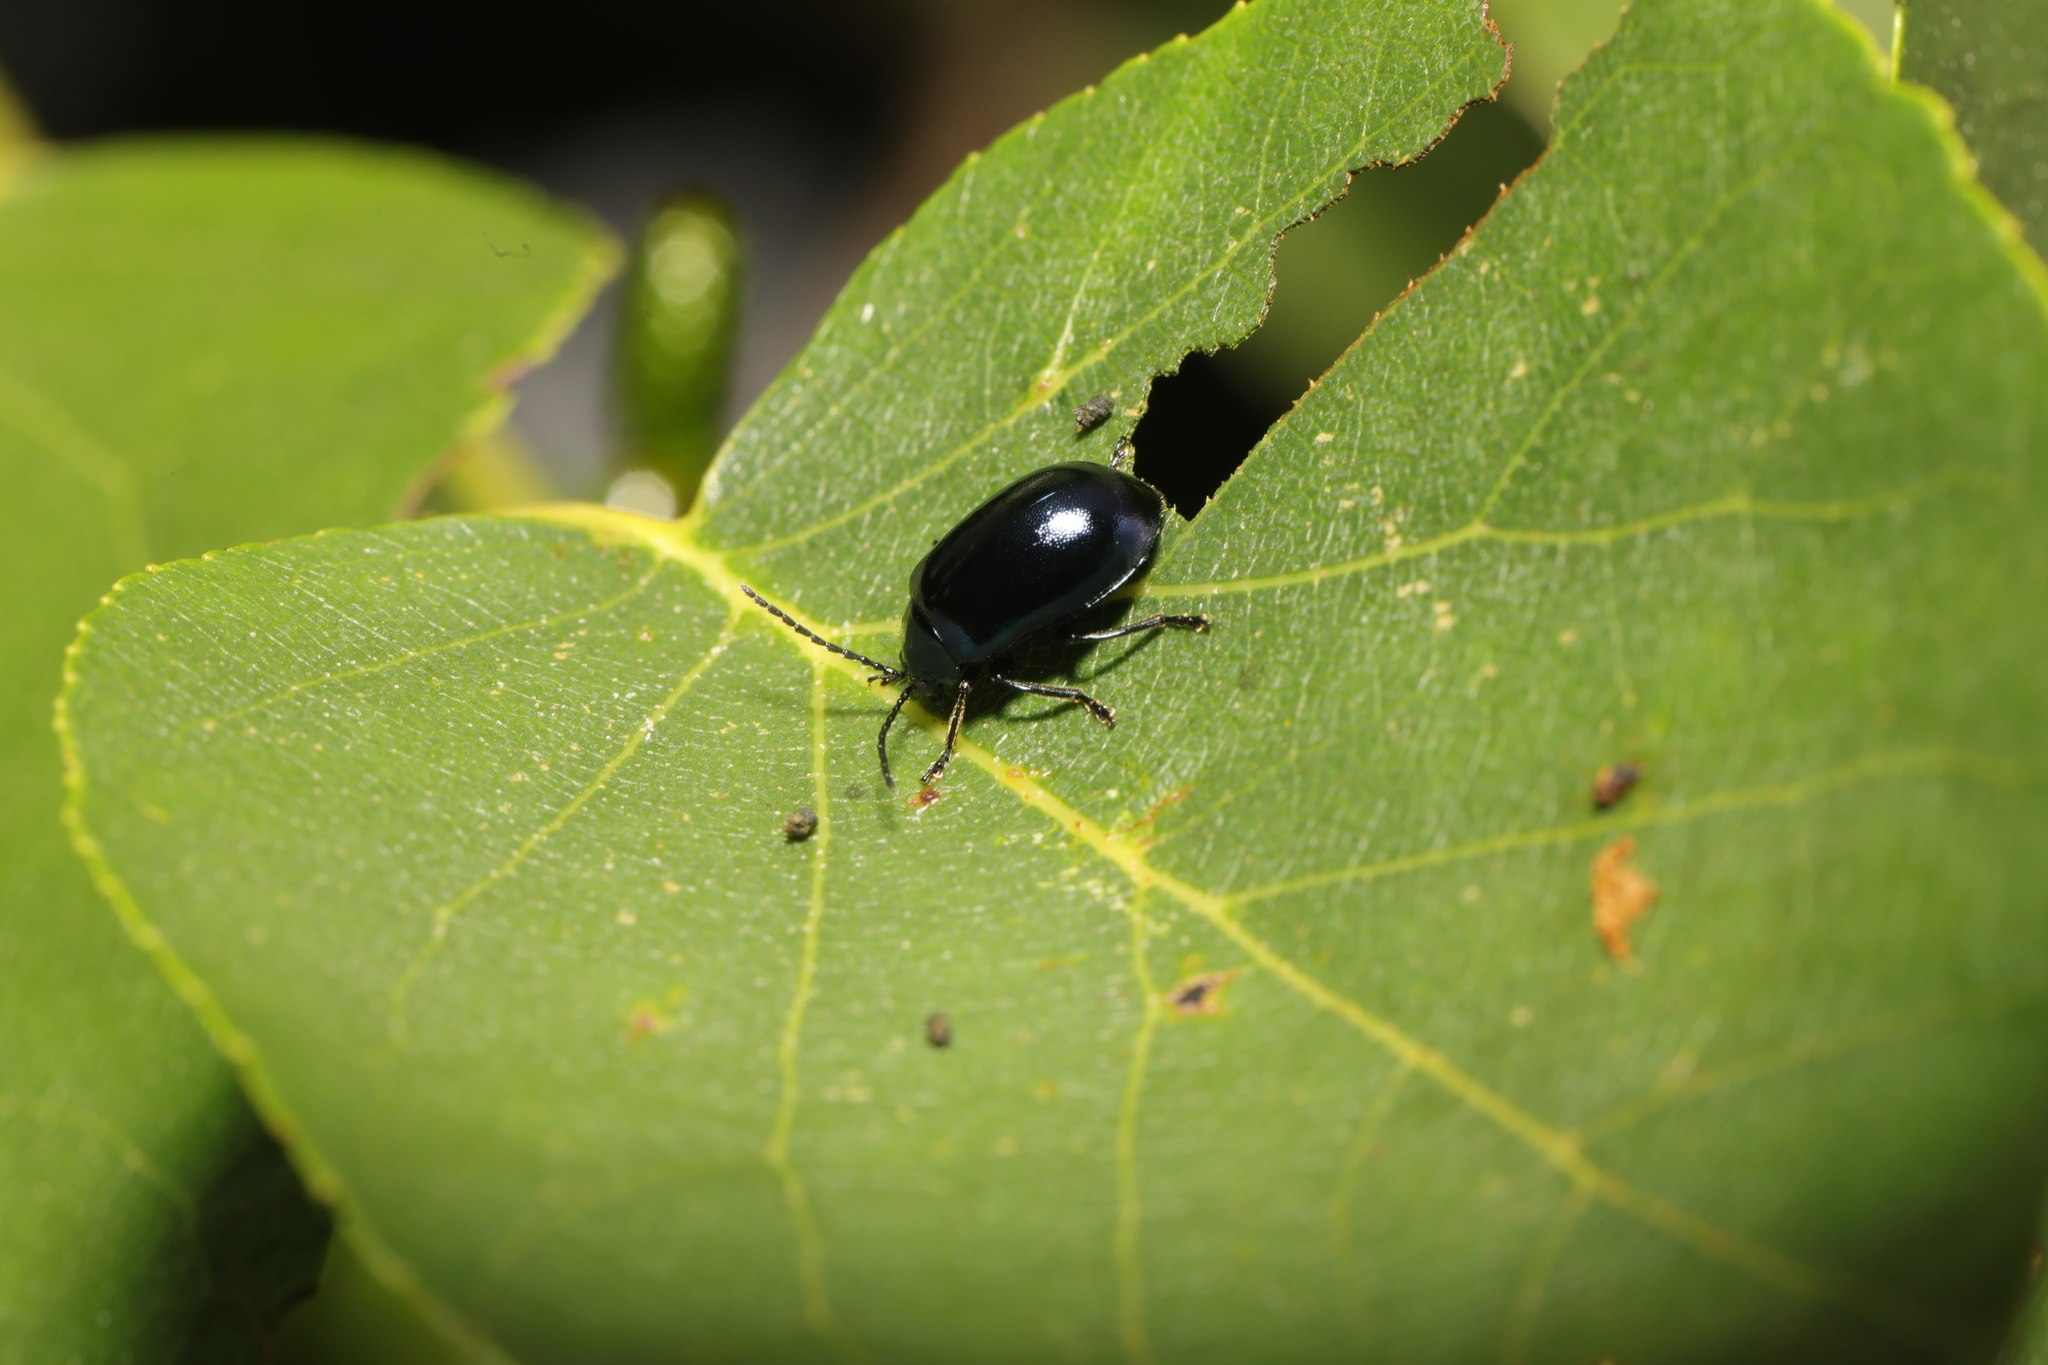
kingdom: Animalia
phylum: Arthropoda
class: Insecta
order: Coleoptera
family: Chrysomelidae
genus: Agelastica
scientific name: Agelastica alni
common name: Alder leaf beetle
